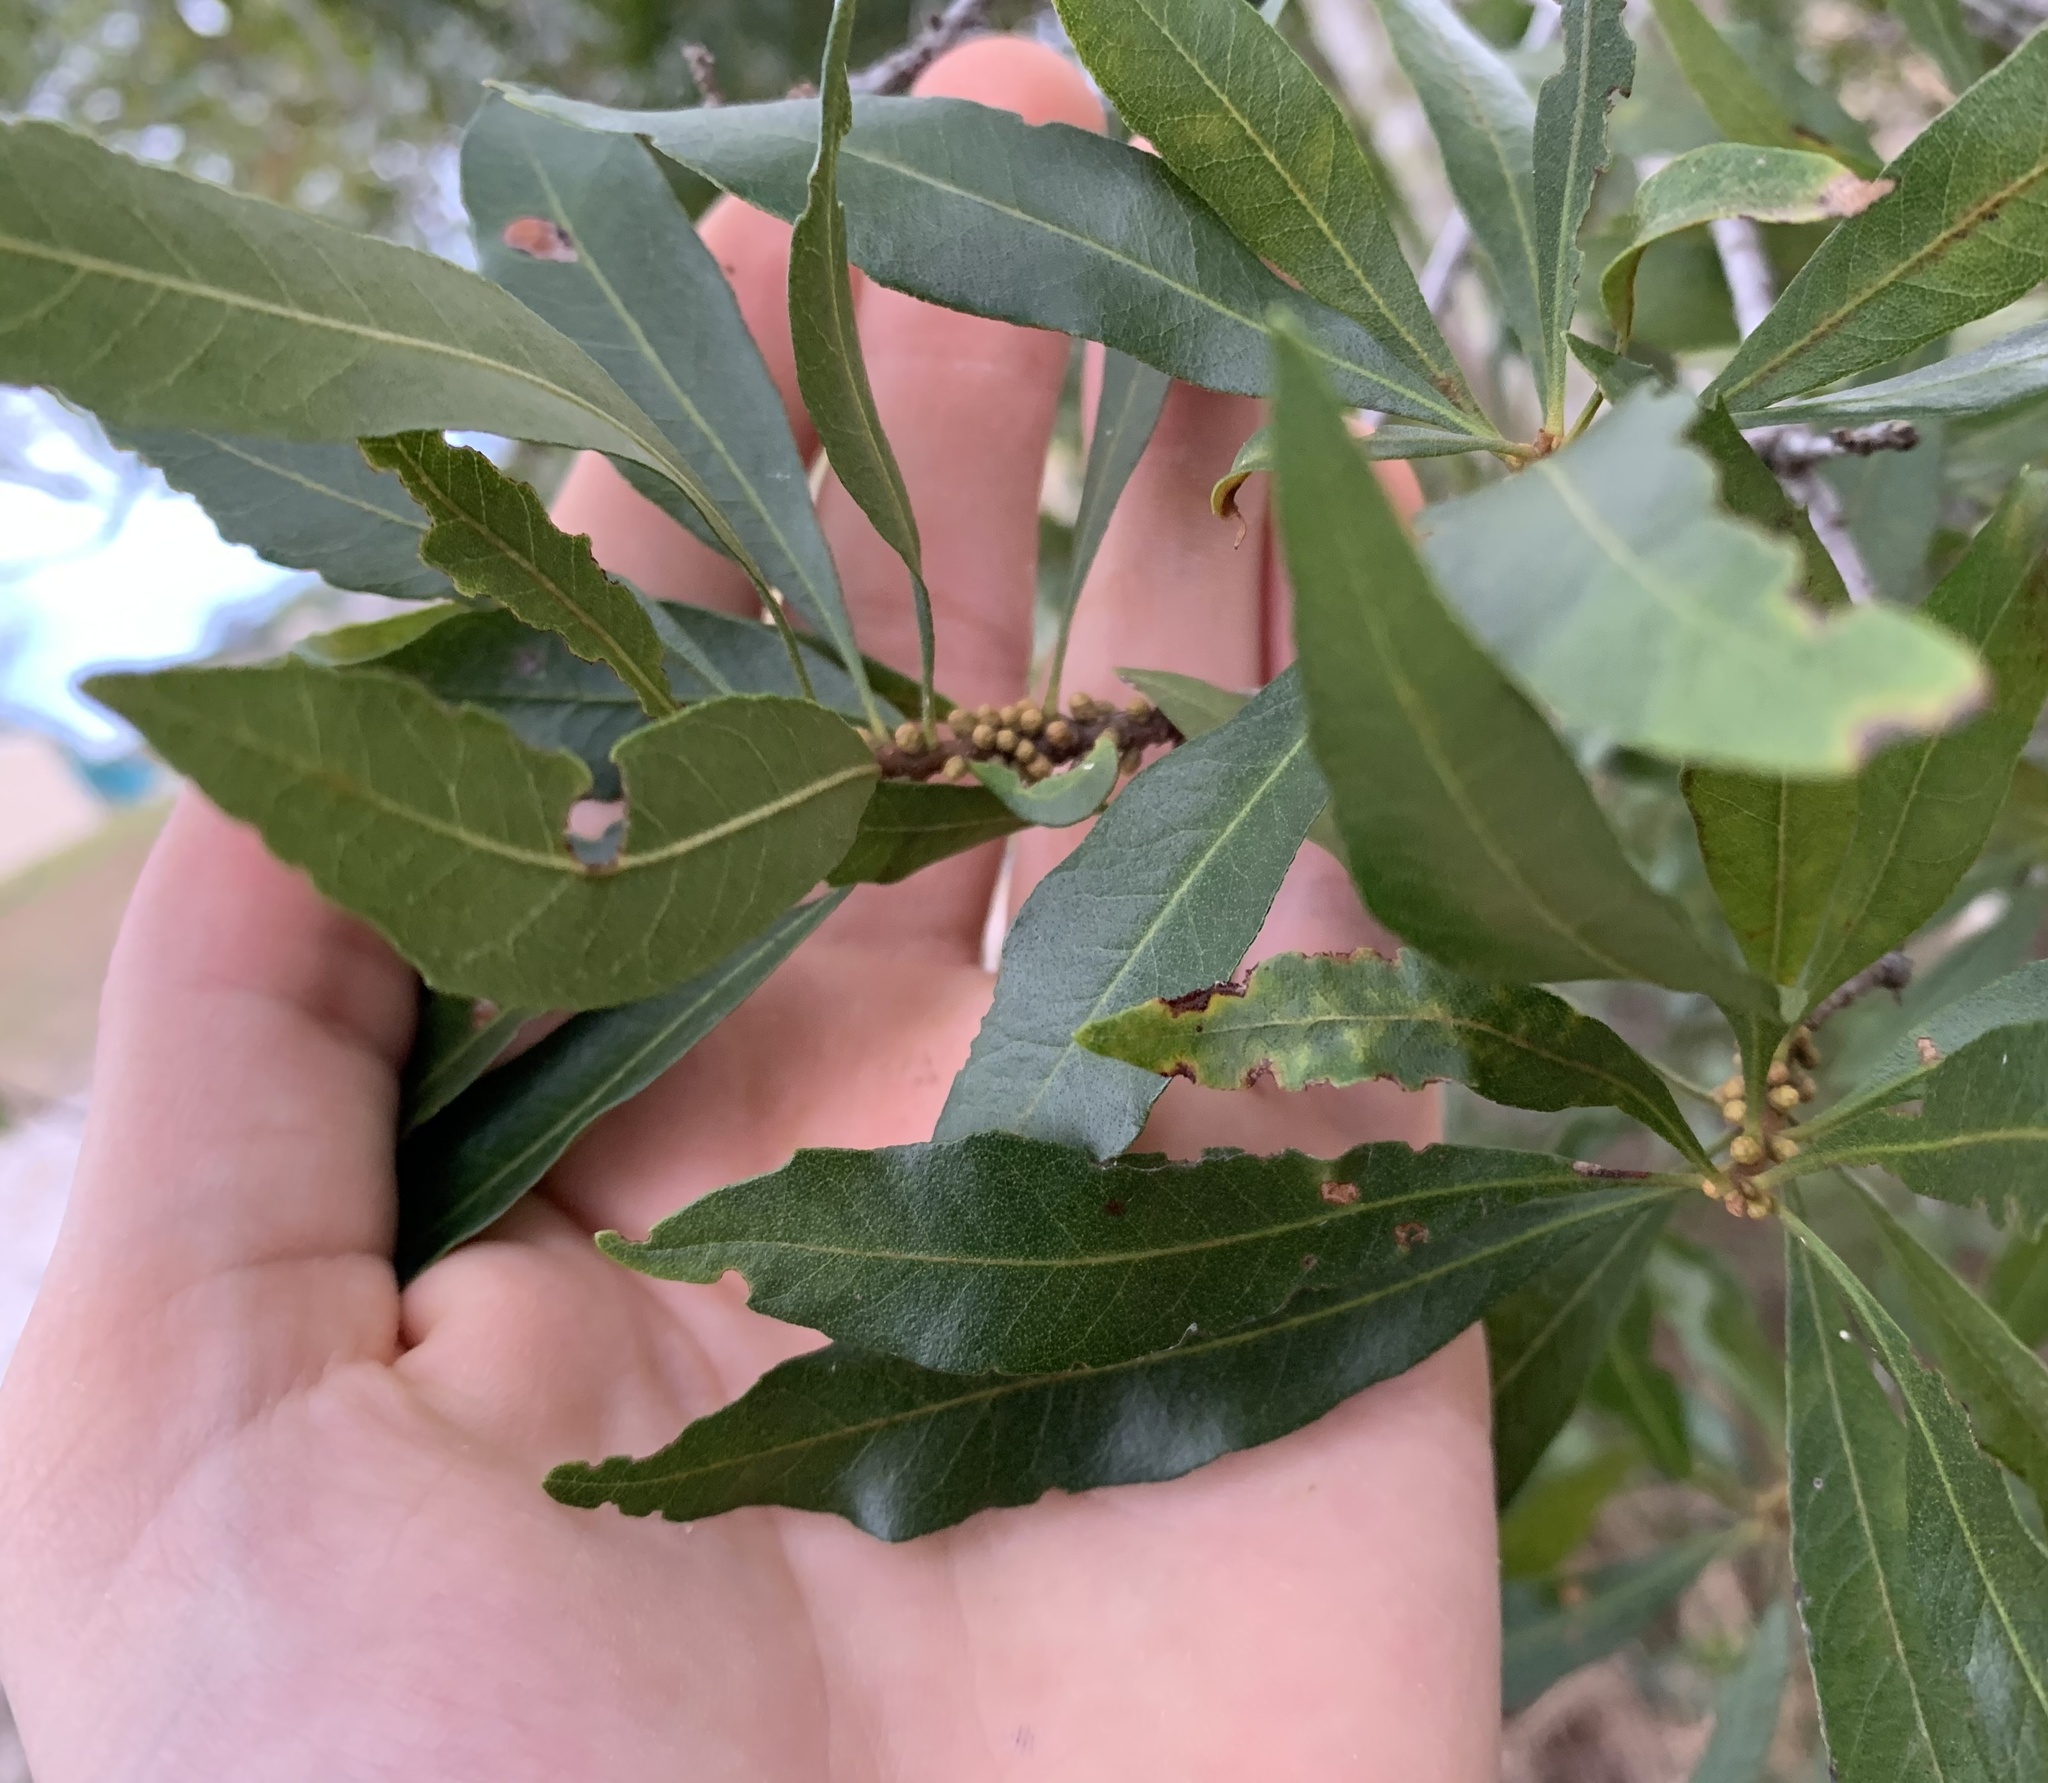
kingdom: Plantae
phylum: Tracheophyta
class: Magnoliopsida
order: Fagales
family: Myricaceae
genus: Morella
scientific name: Morella cerifera
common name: Wax myrtle
